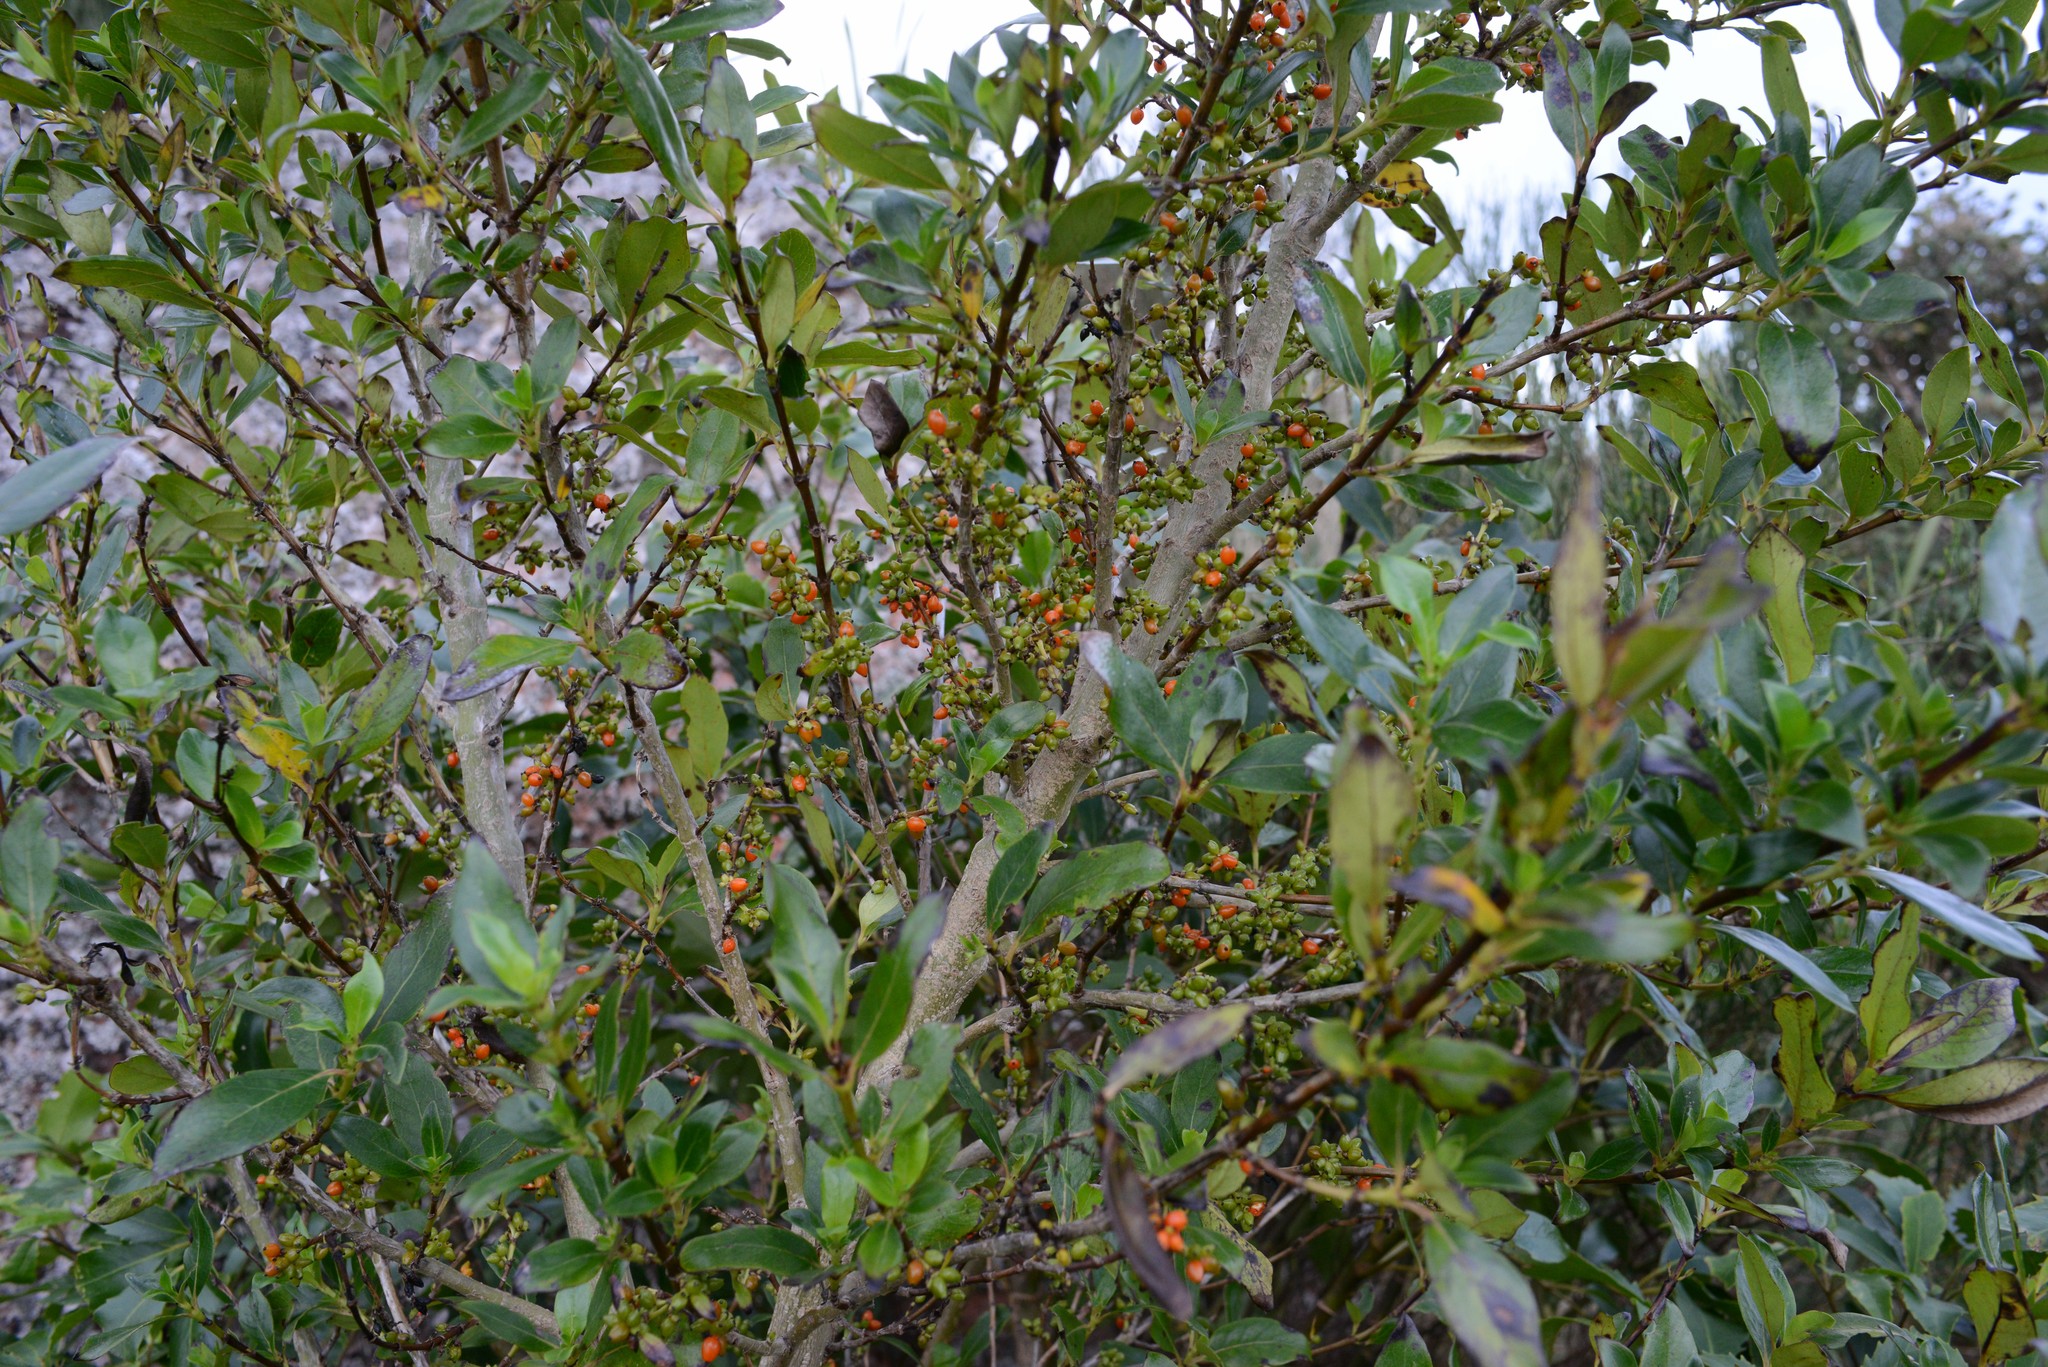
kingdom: Plantae
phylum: Tracheophyta
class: Magnoliopsida
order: Gentianales
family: Rubiaceae
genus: Coprosma
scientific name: Coprosma robusta
